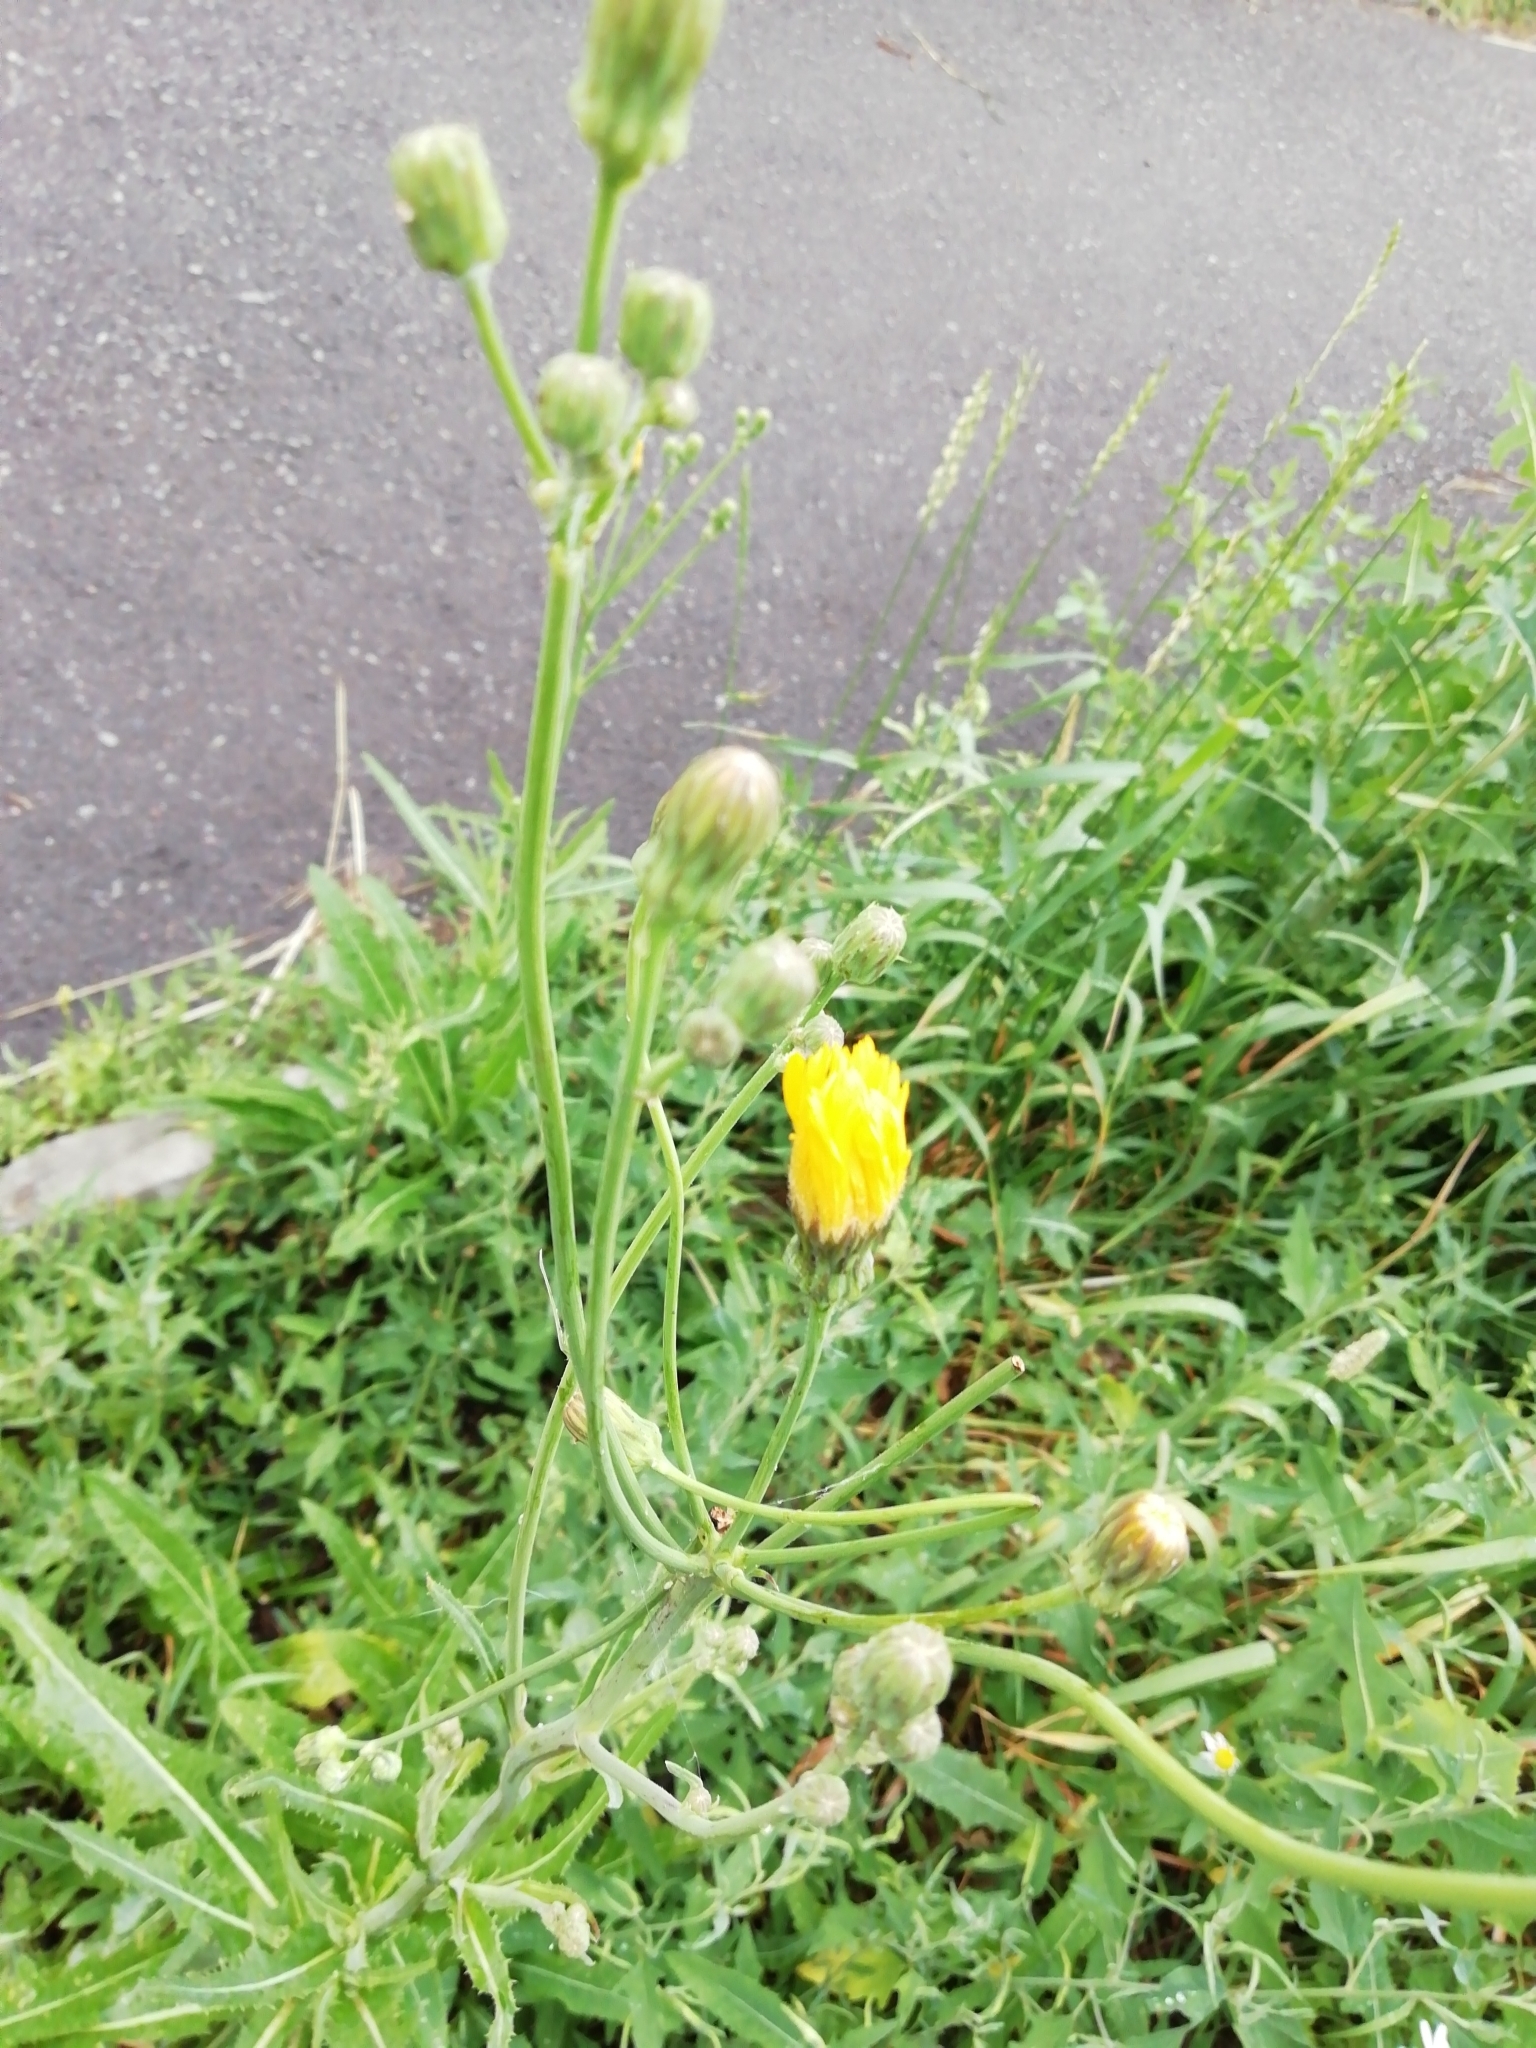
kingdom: Plantae
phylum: Tracheophyta
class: Magnoliopsida
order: Asterales
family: Asteraceae
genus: Sonchus
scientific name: Sonchus arvensis
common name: Perennial sow-thistle
